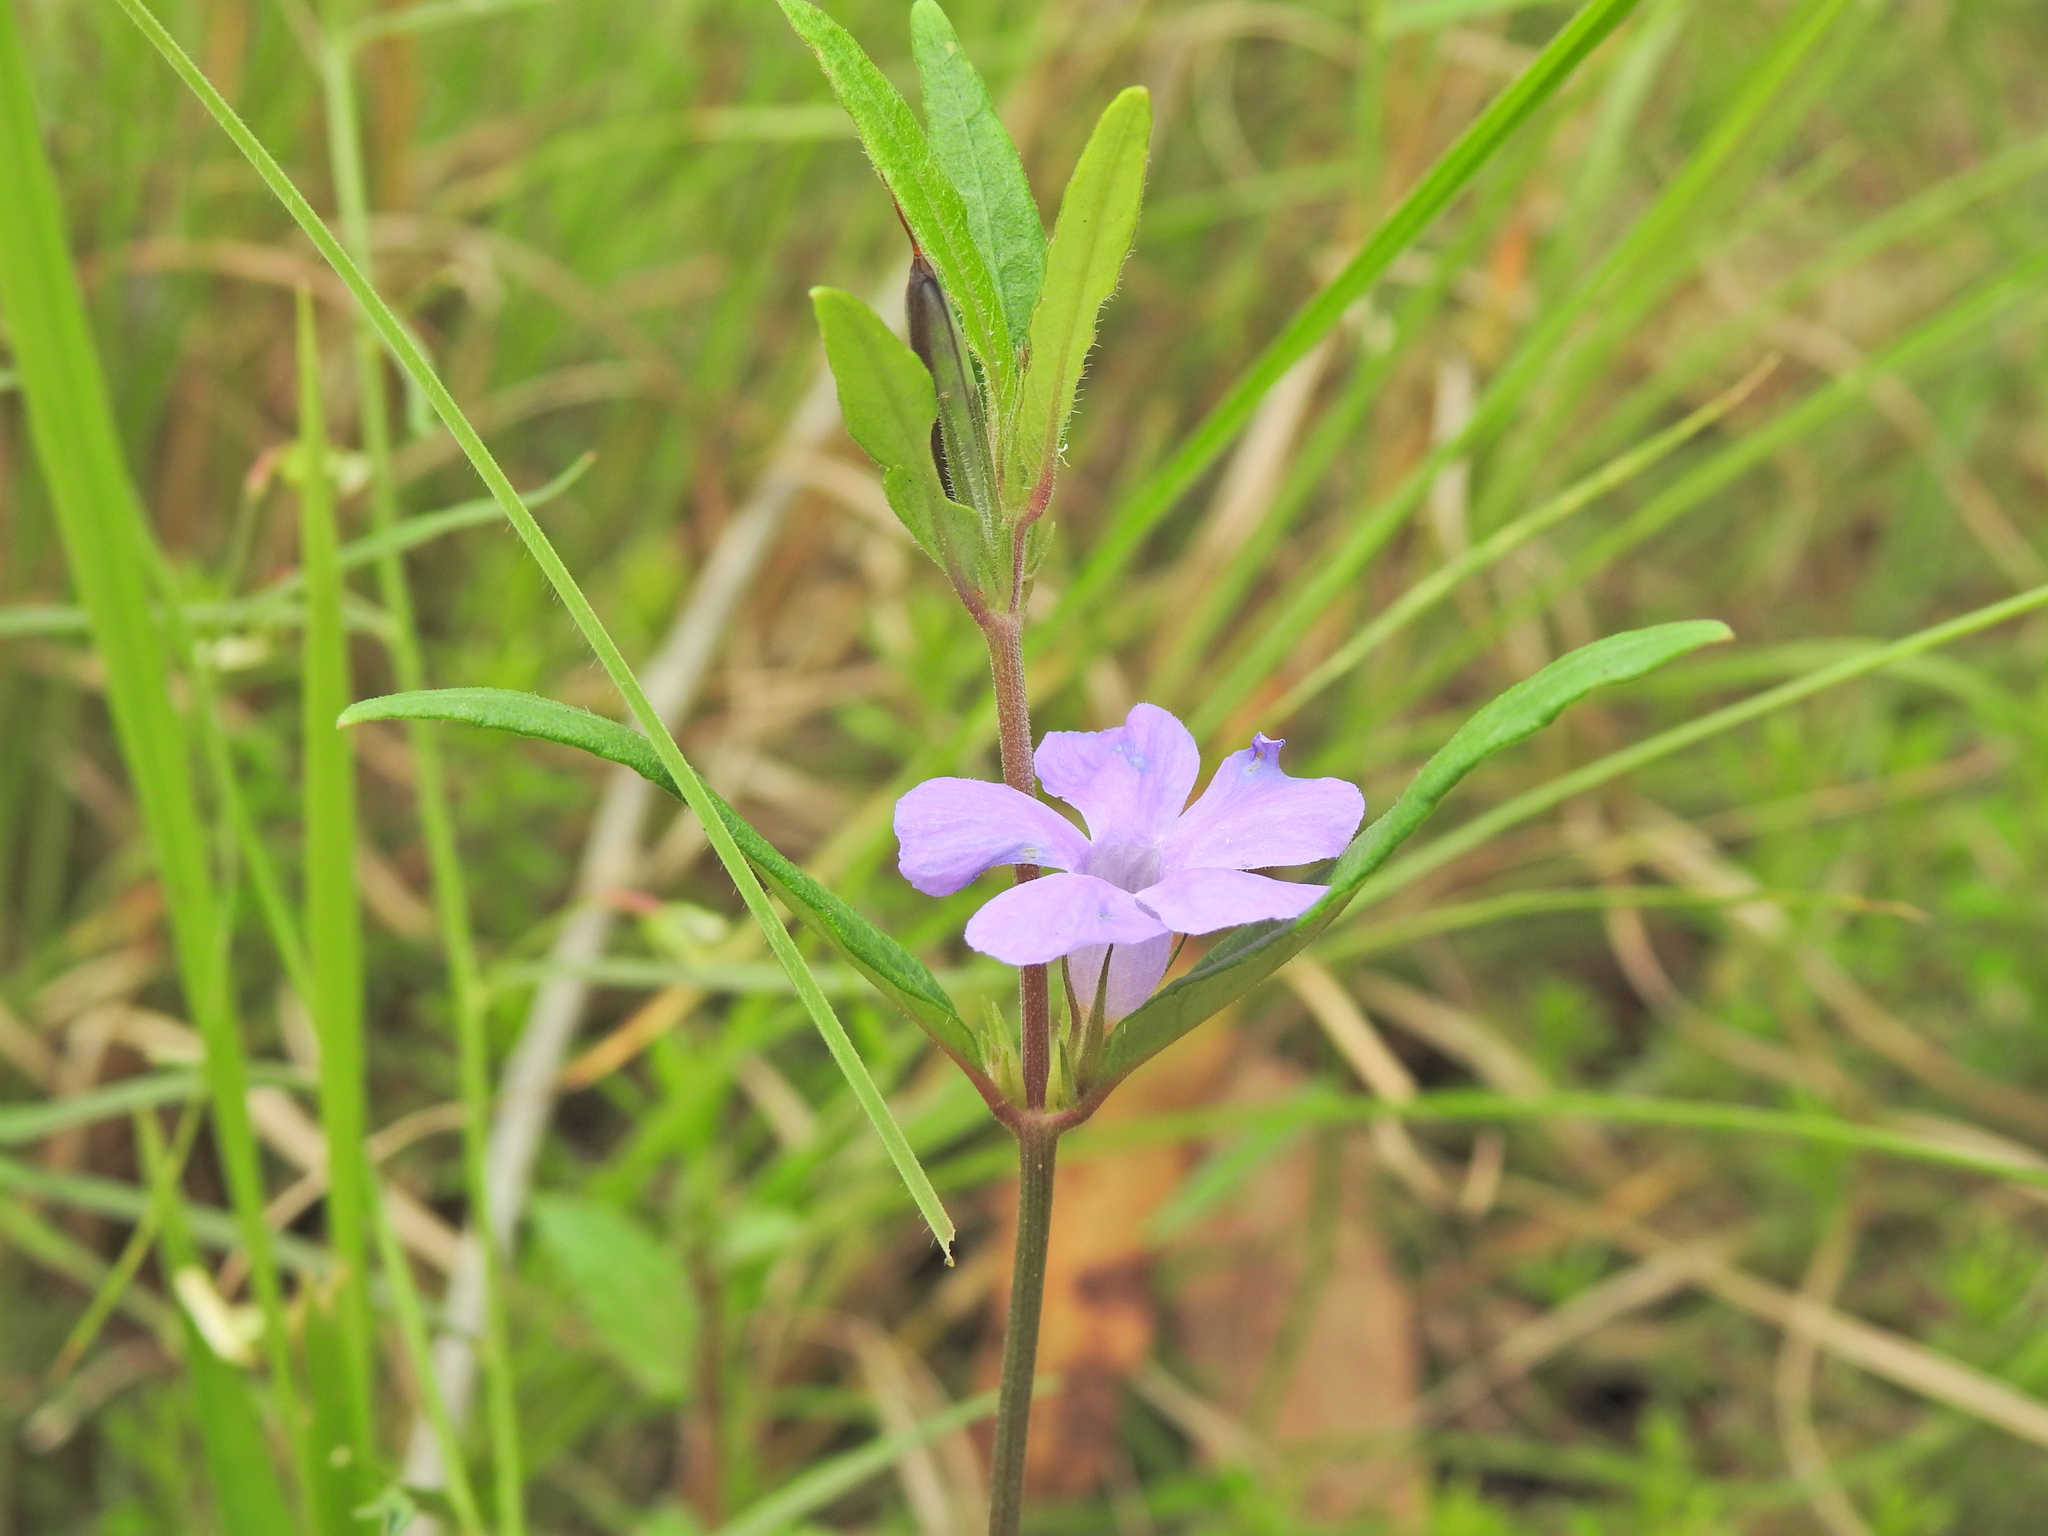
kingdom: Plantae
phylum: Tracheophyta
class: Magnoliopsida
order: Lamiales
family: Acanthaceae
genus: Brunoniella
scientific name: Brunoniella australis
